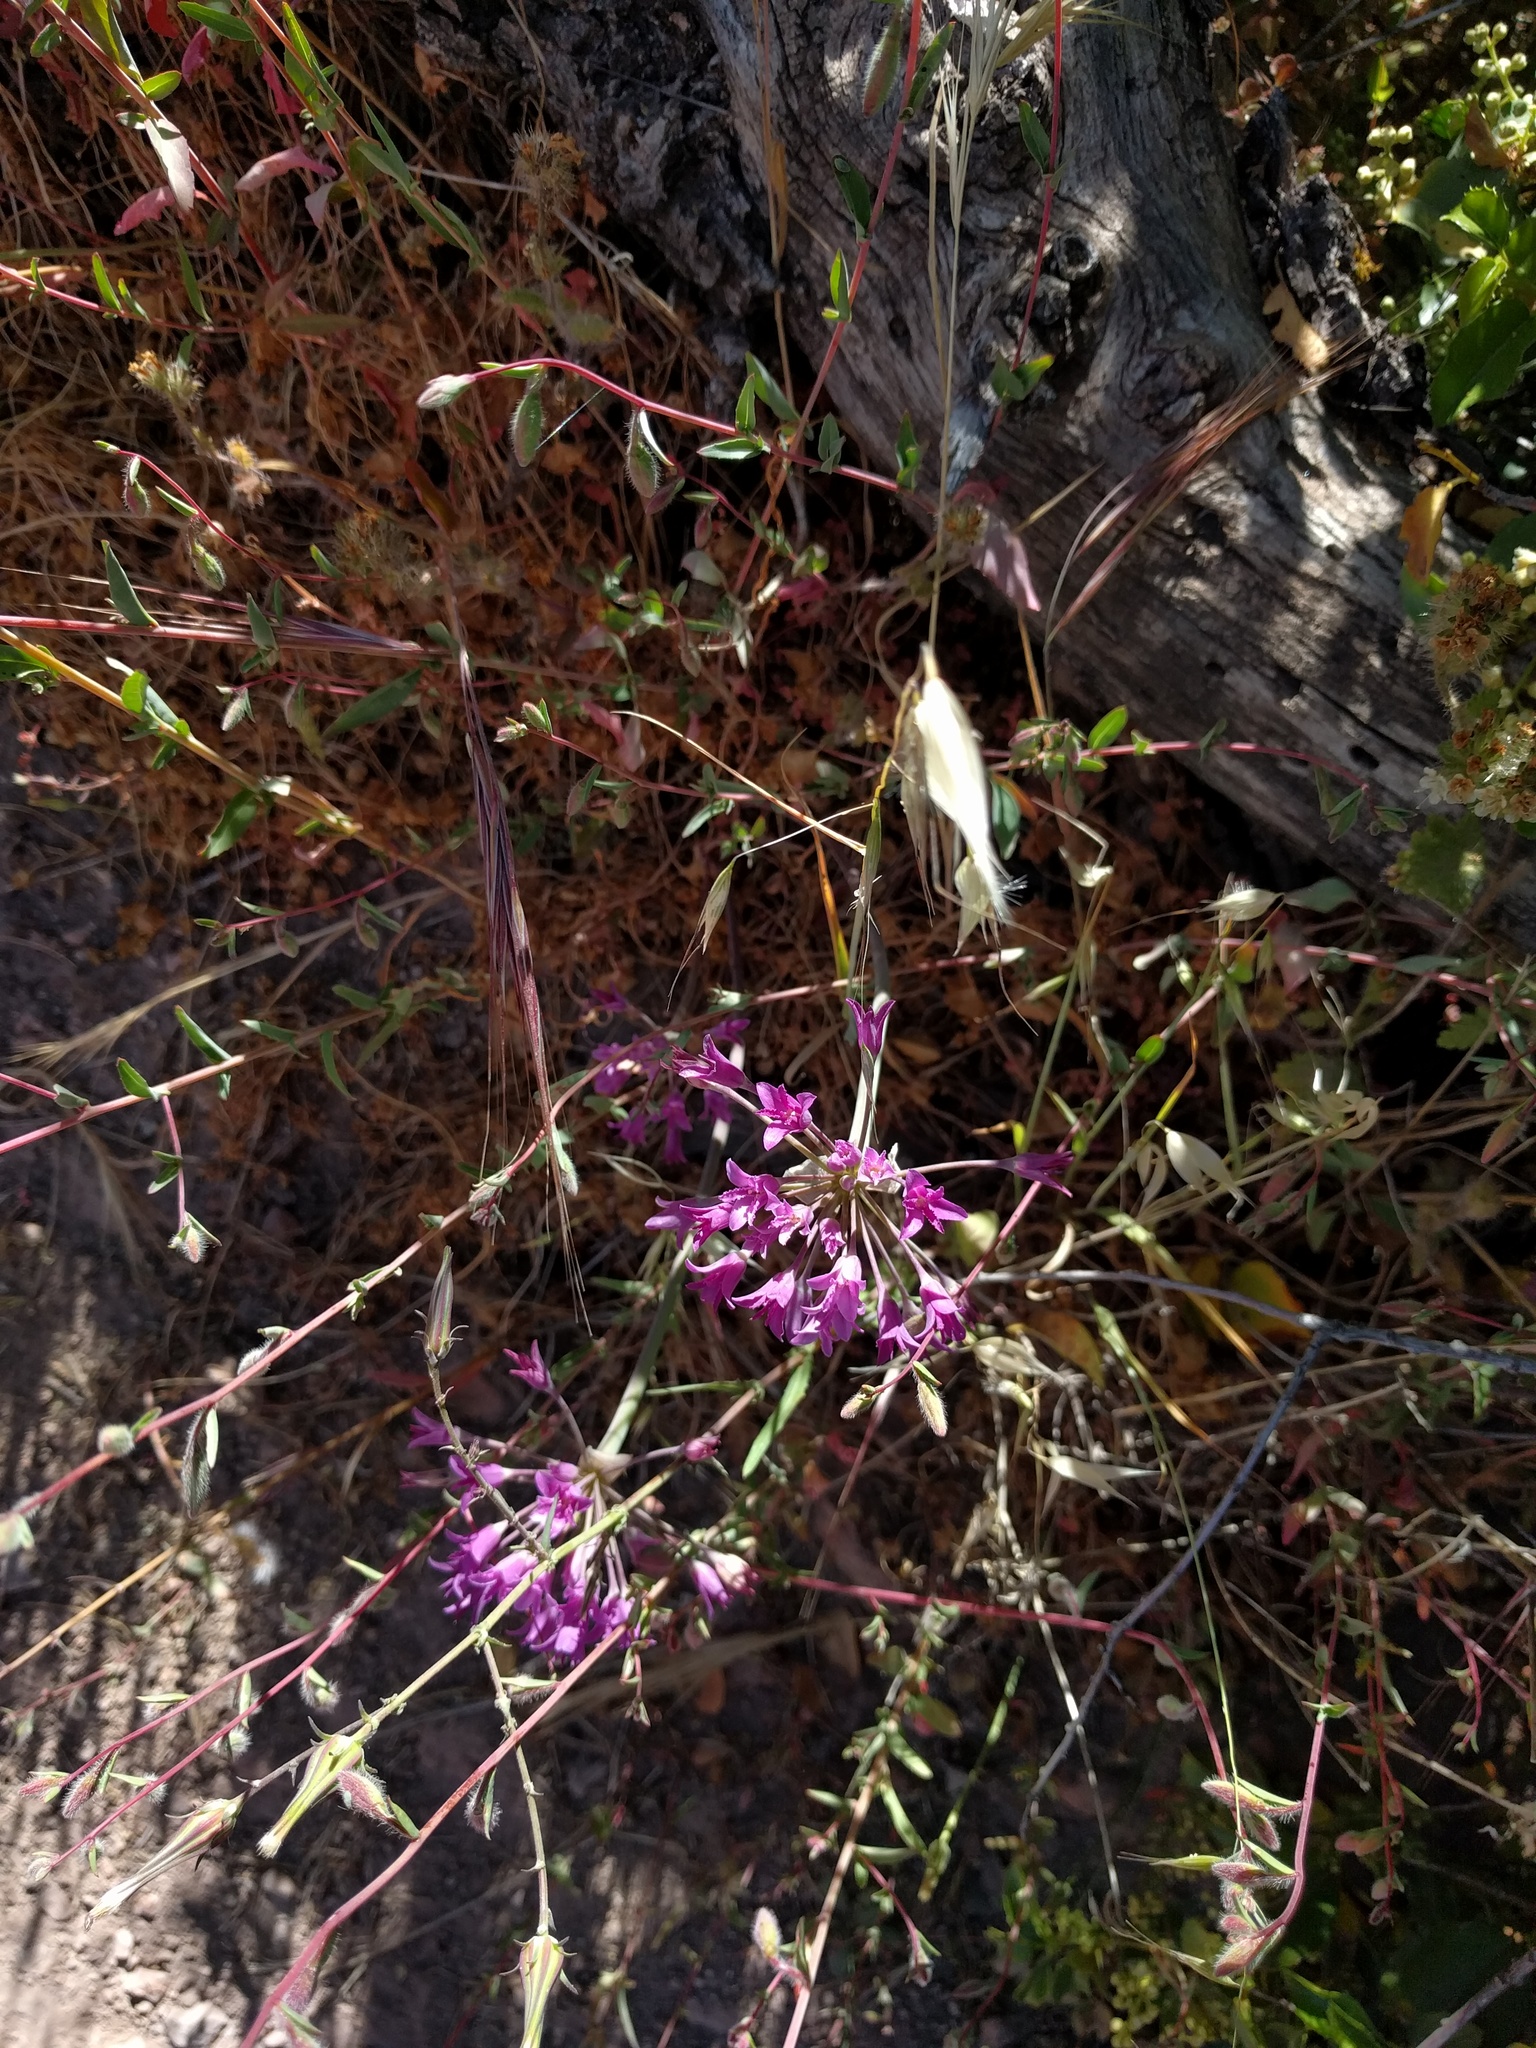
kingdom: Plantae
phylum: Tracheophyta
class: Liliopsida
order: Asparagales
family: Amaryllidaceae
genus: Allium
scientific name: Allium crispum
